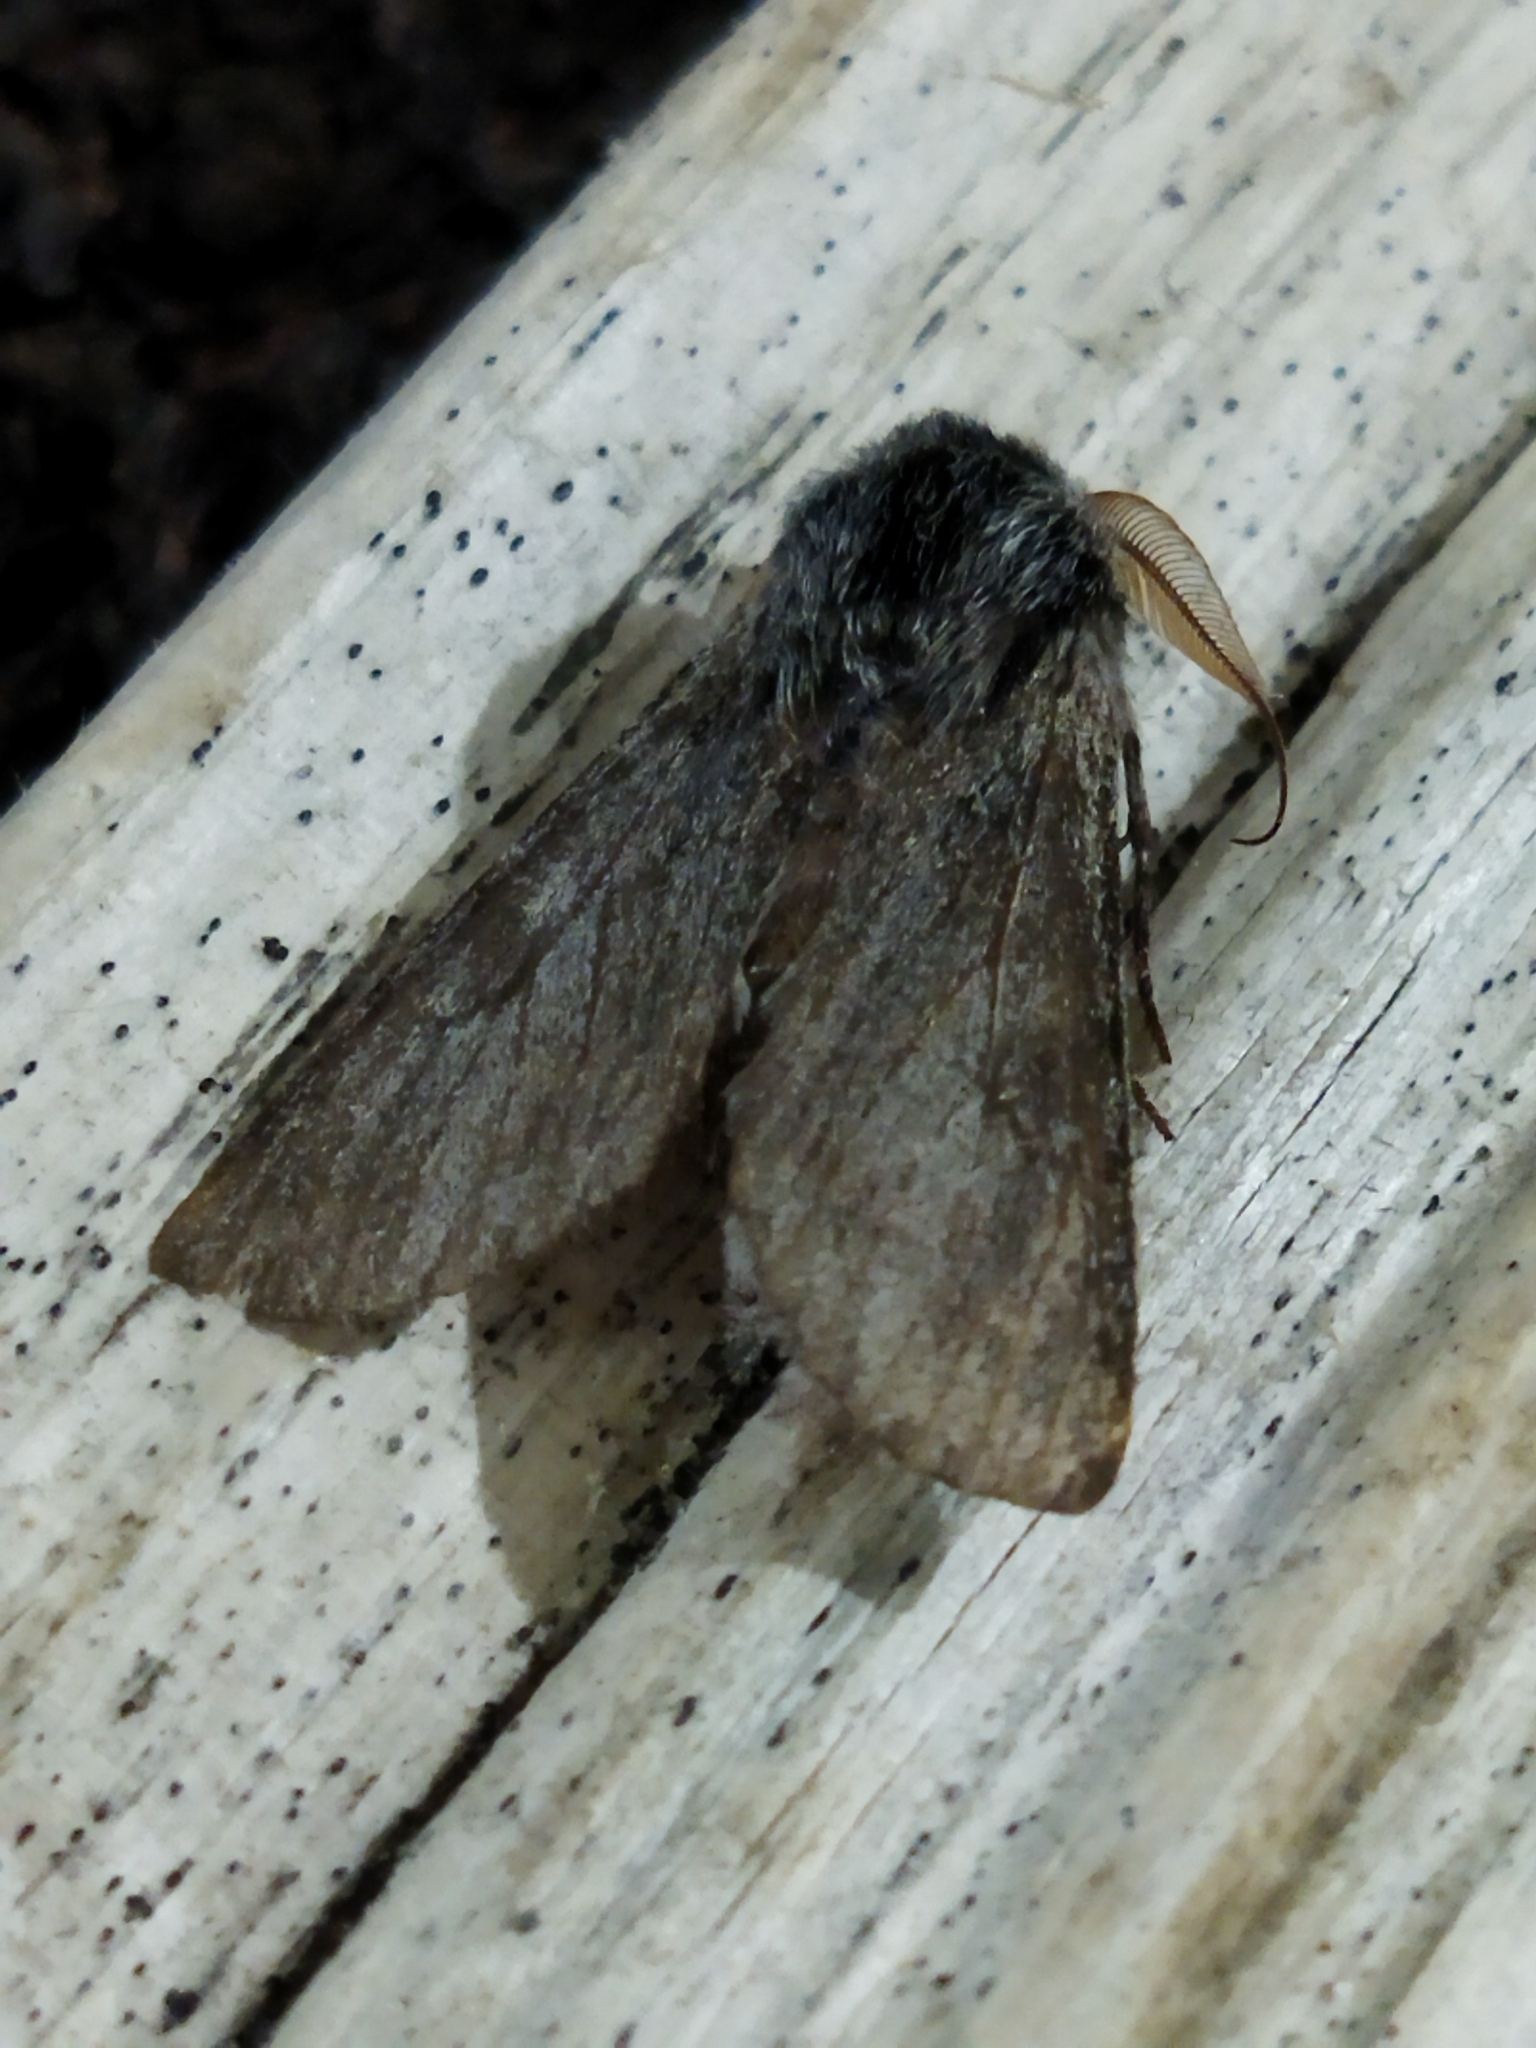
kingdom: Animalia
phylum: Arthropoda
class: Insecta
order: Lepidoptera
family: Notodontidae
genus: Dicranura
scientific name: Dicranura ulmi
